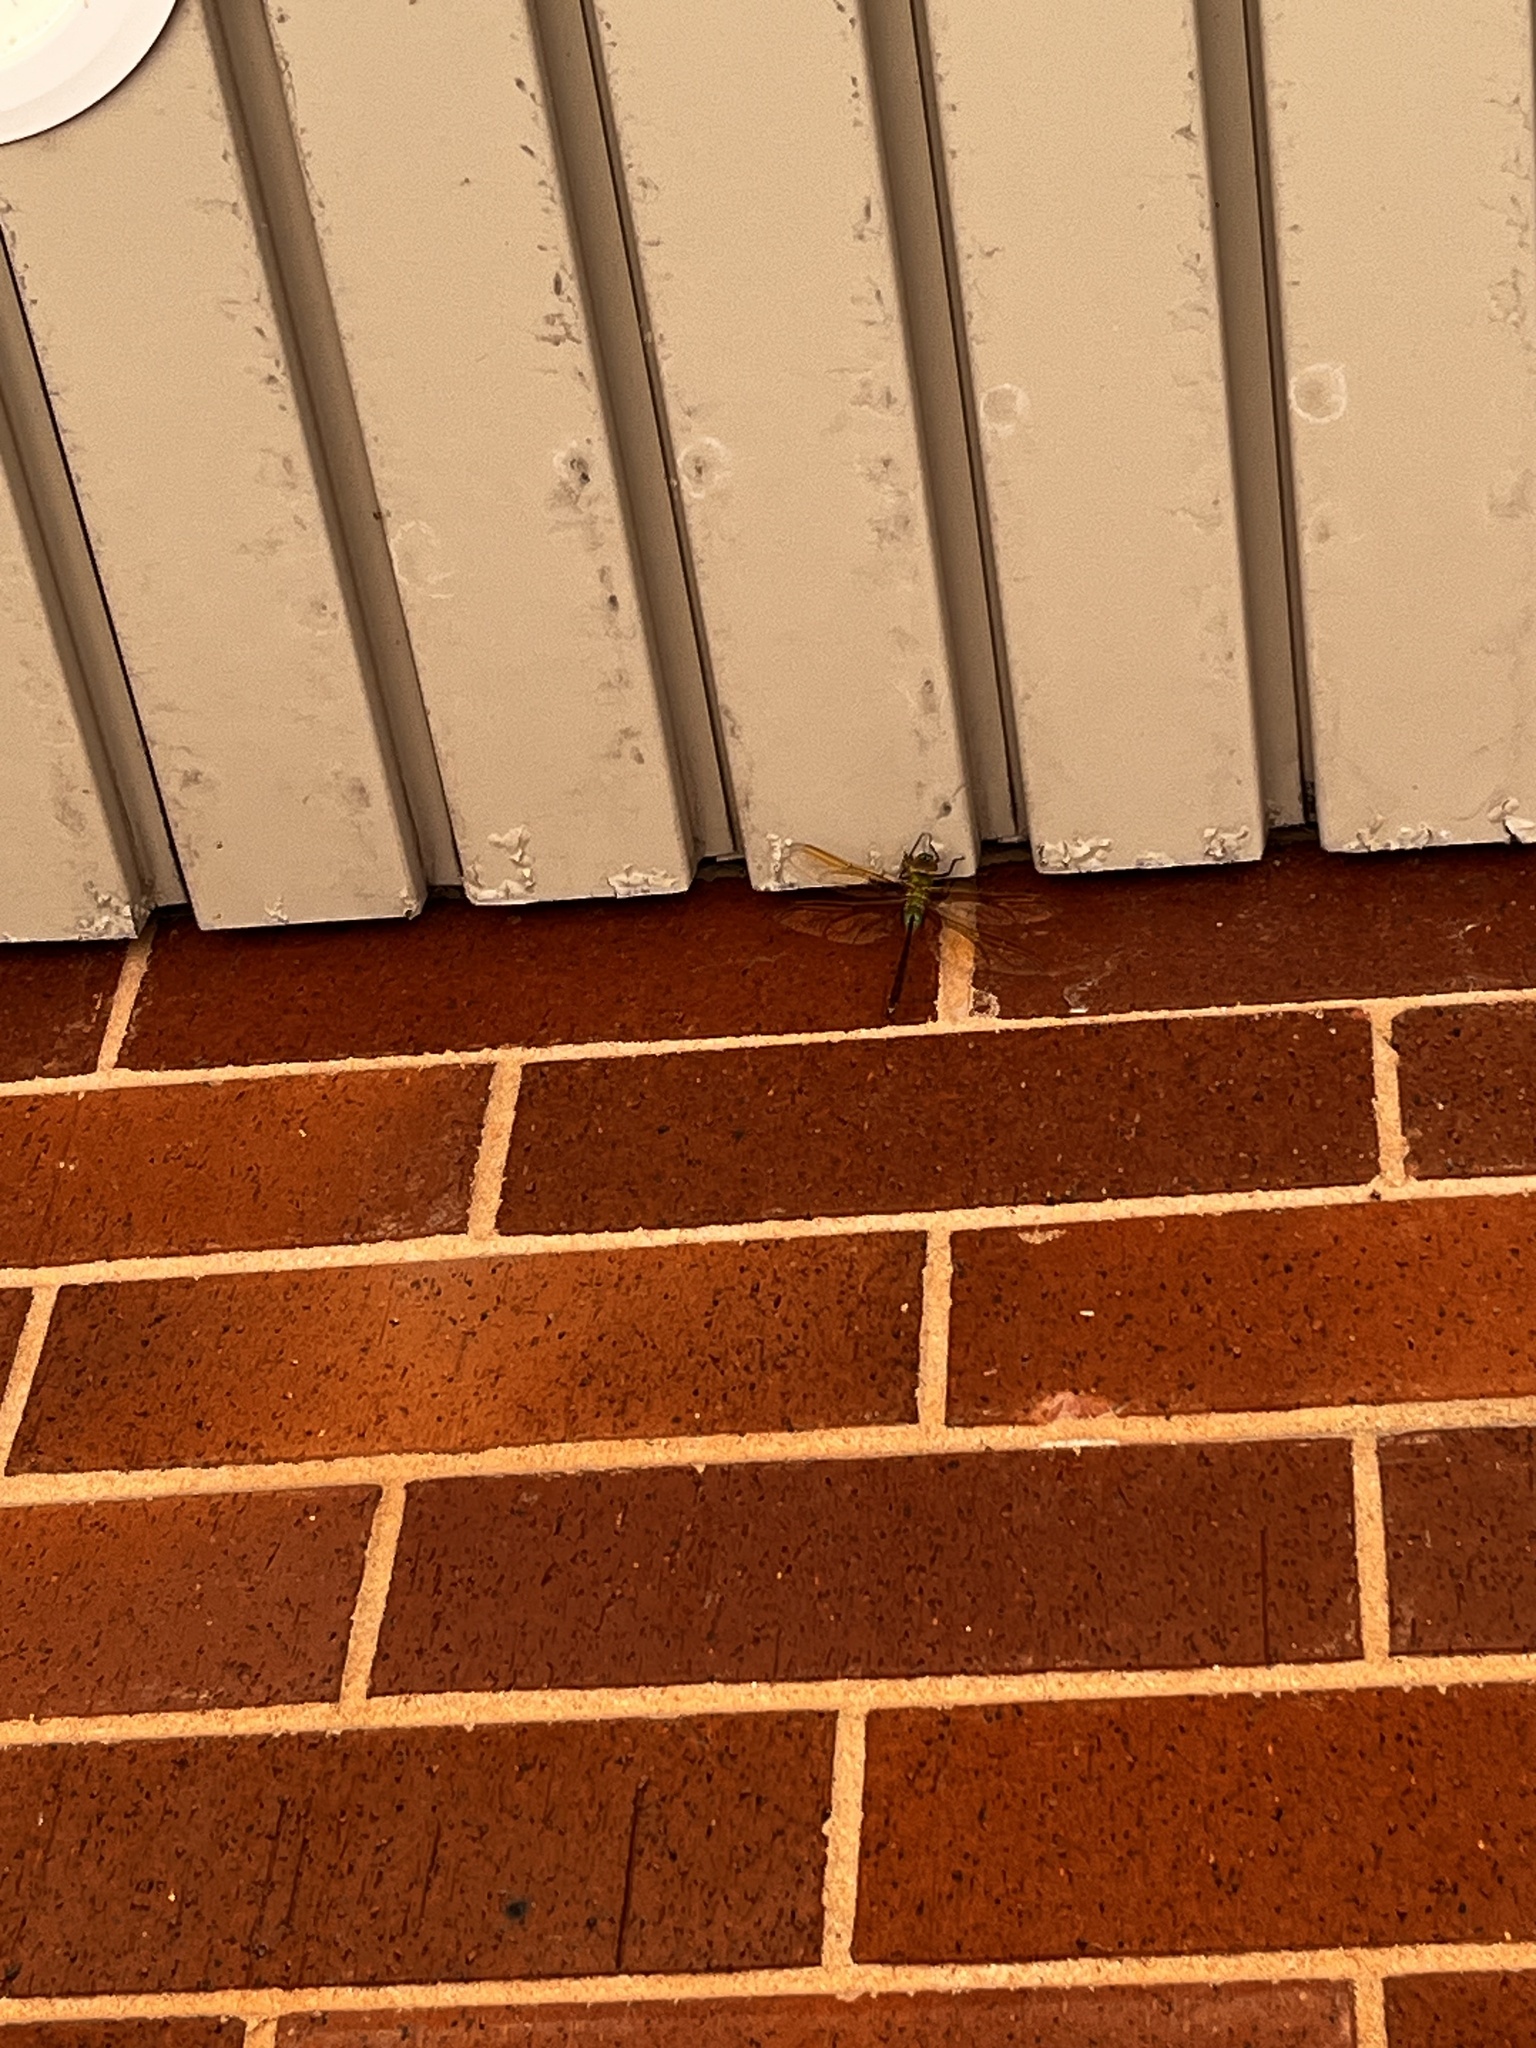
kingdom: Animalia
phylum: Arthropoda
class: Insecta
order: Odonata
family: Aeshnidae
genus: Anax
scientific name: Anax junius
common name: Common green darner
